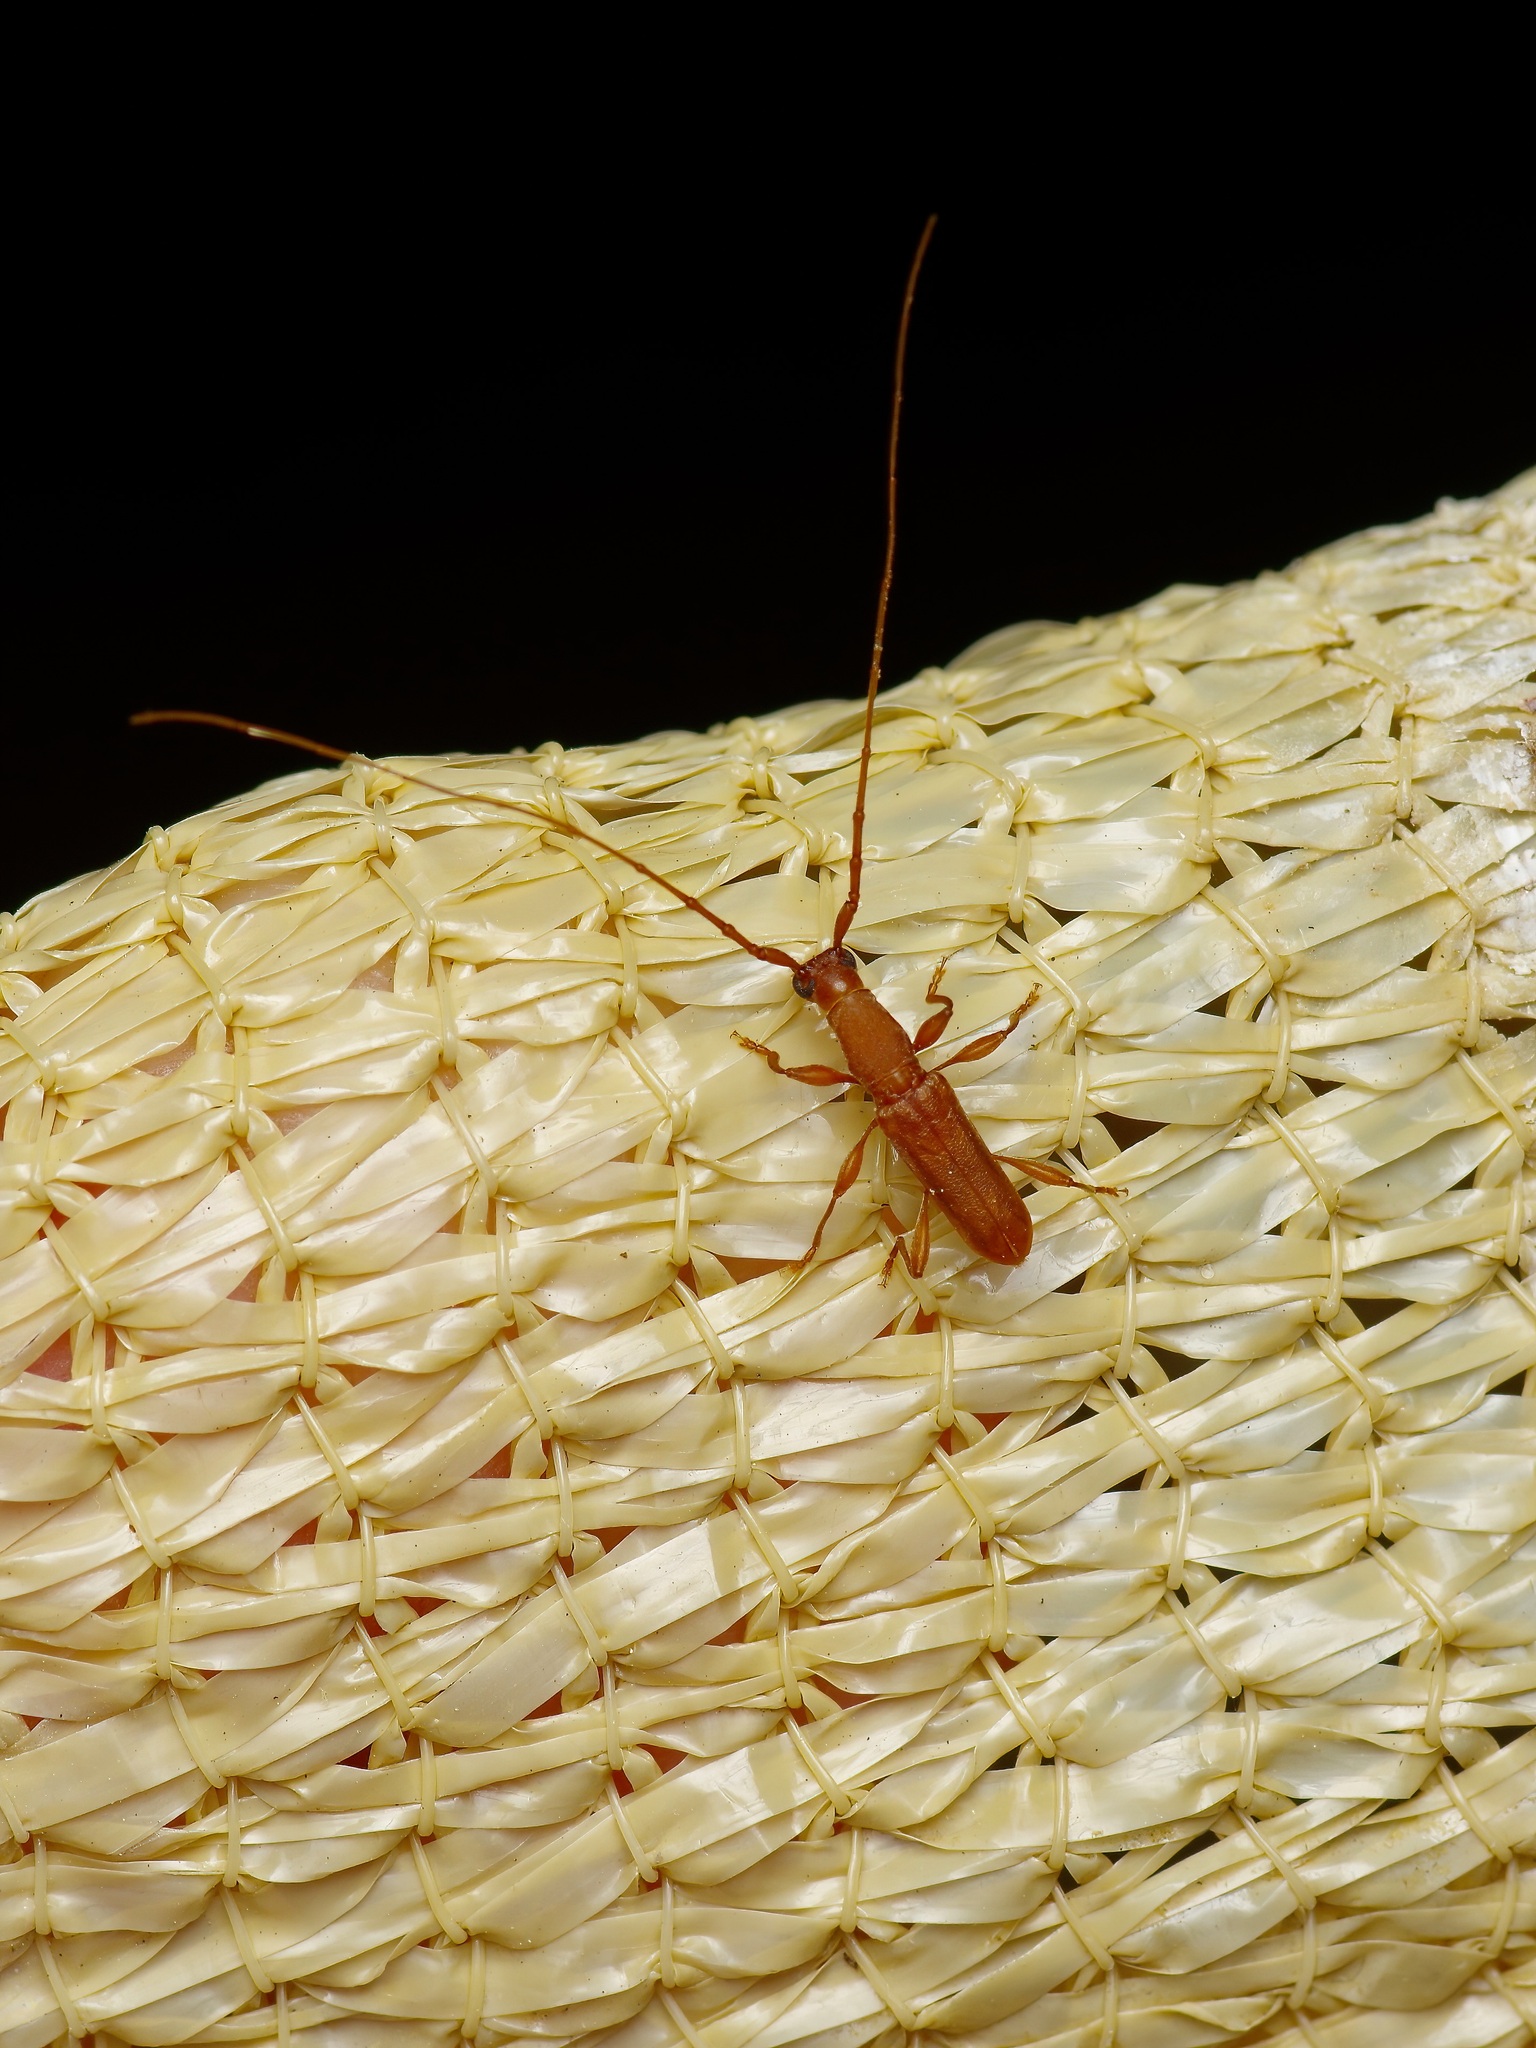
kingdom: Animalia
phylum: Arthropoda
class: Insecta
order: Coleoptera
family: Cerambycidae
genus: Hypexilis
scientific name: Hypexilis pallida
